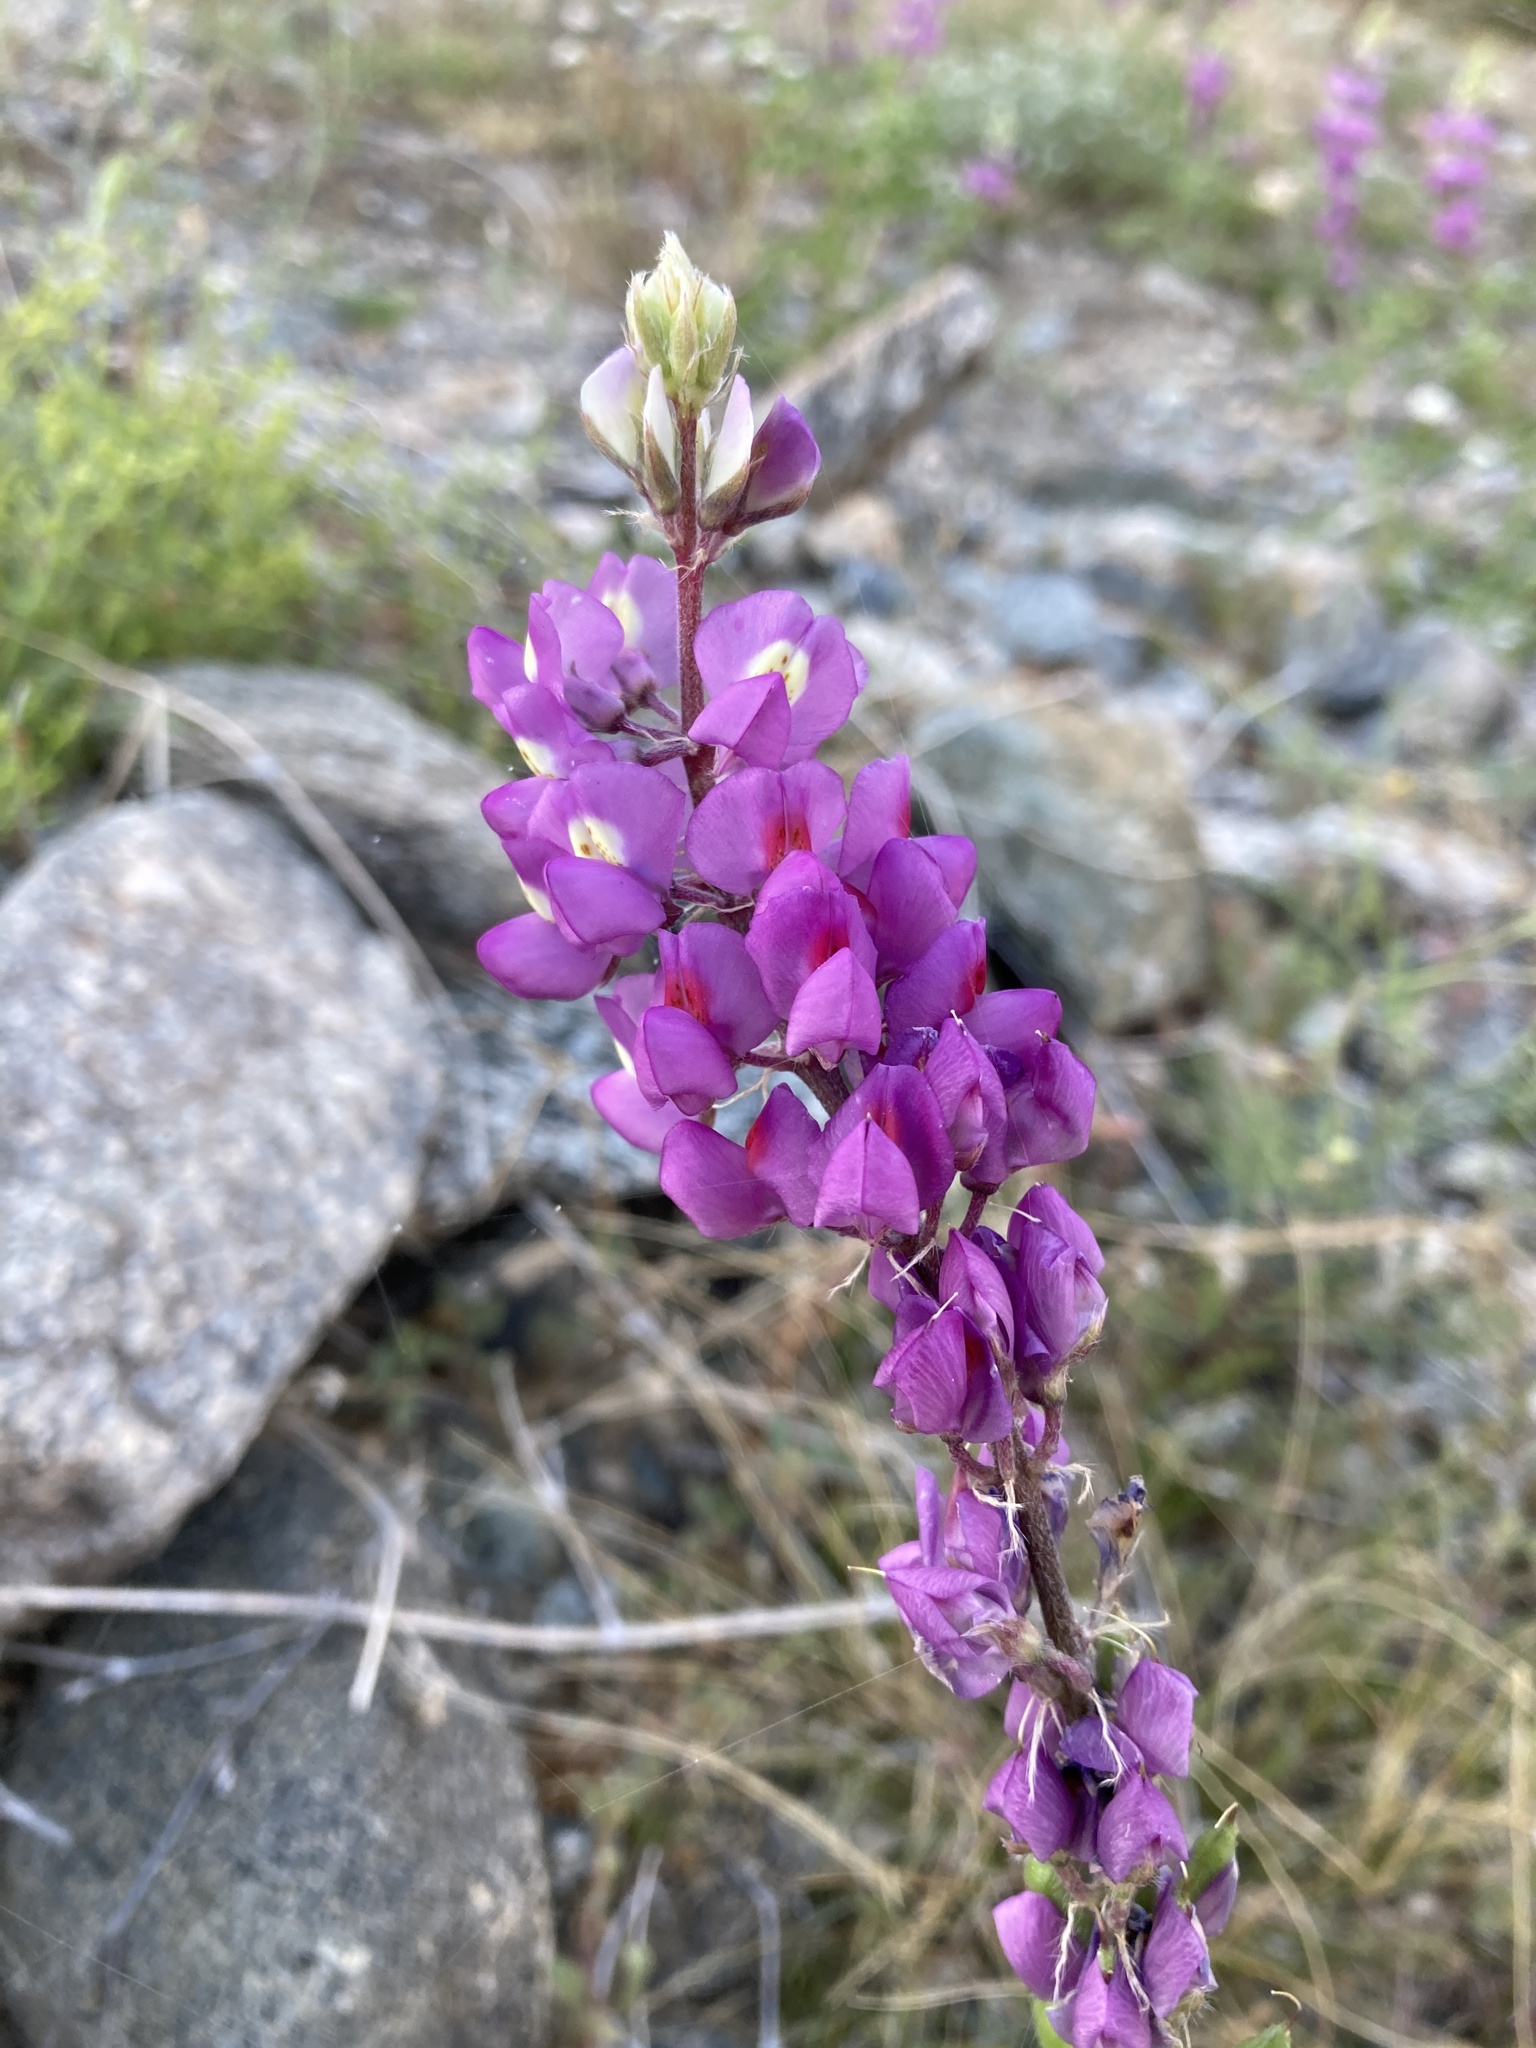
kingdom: Plantae
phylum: Tracheophyta
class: Magnoliopsida
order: Fabales
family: Fabaceae
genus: Lupinus
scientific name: Lupinus arizonicus
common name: Arizona lupine
